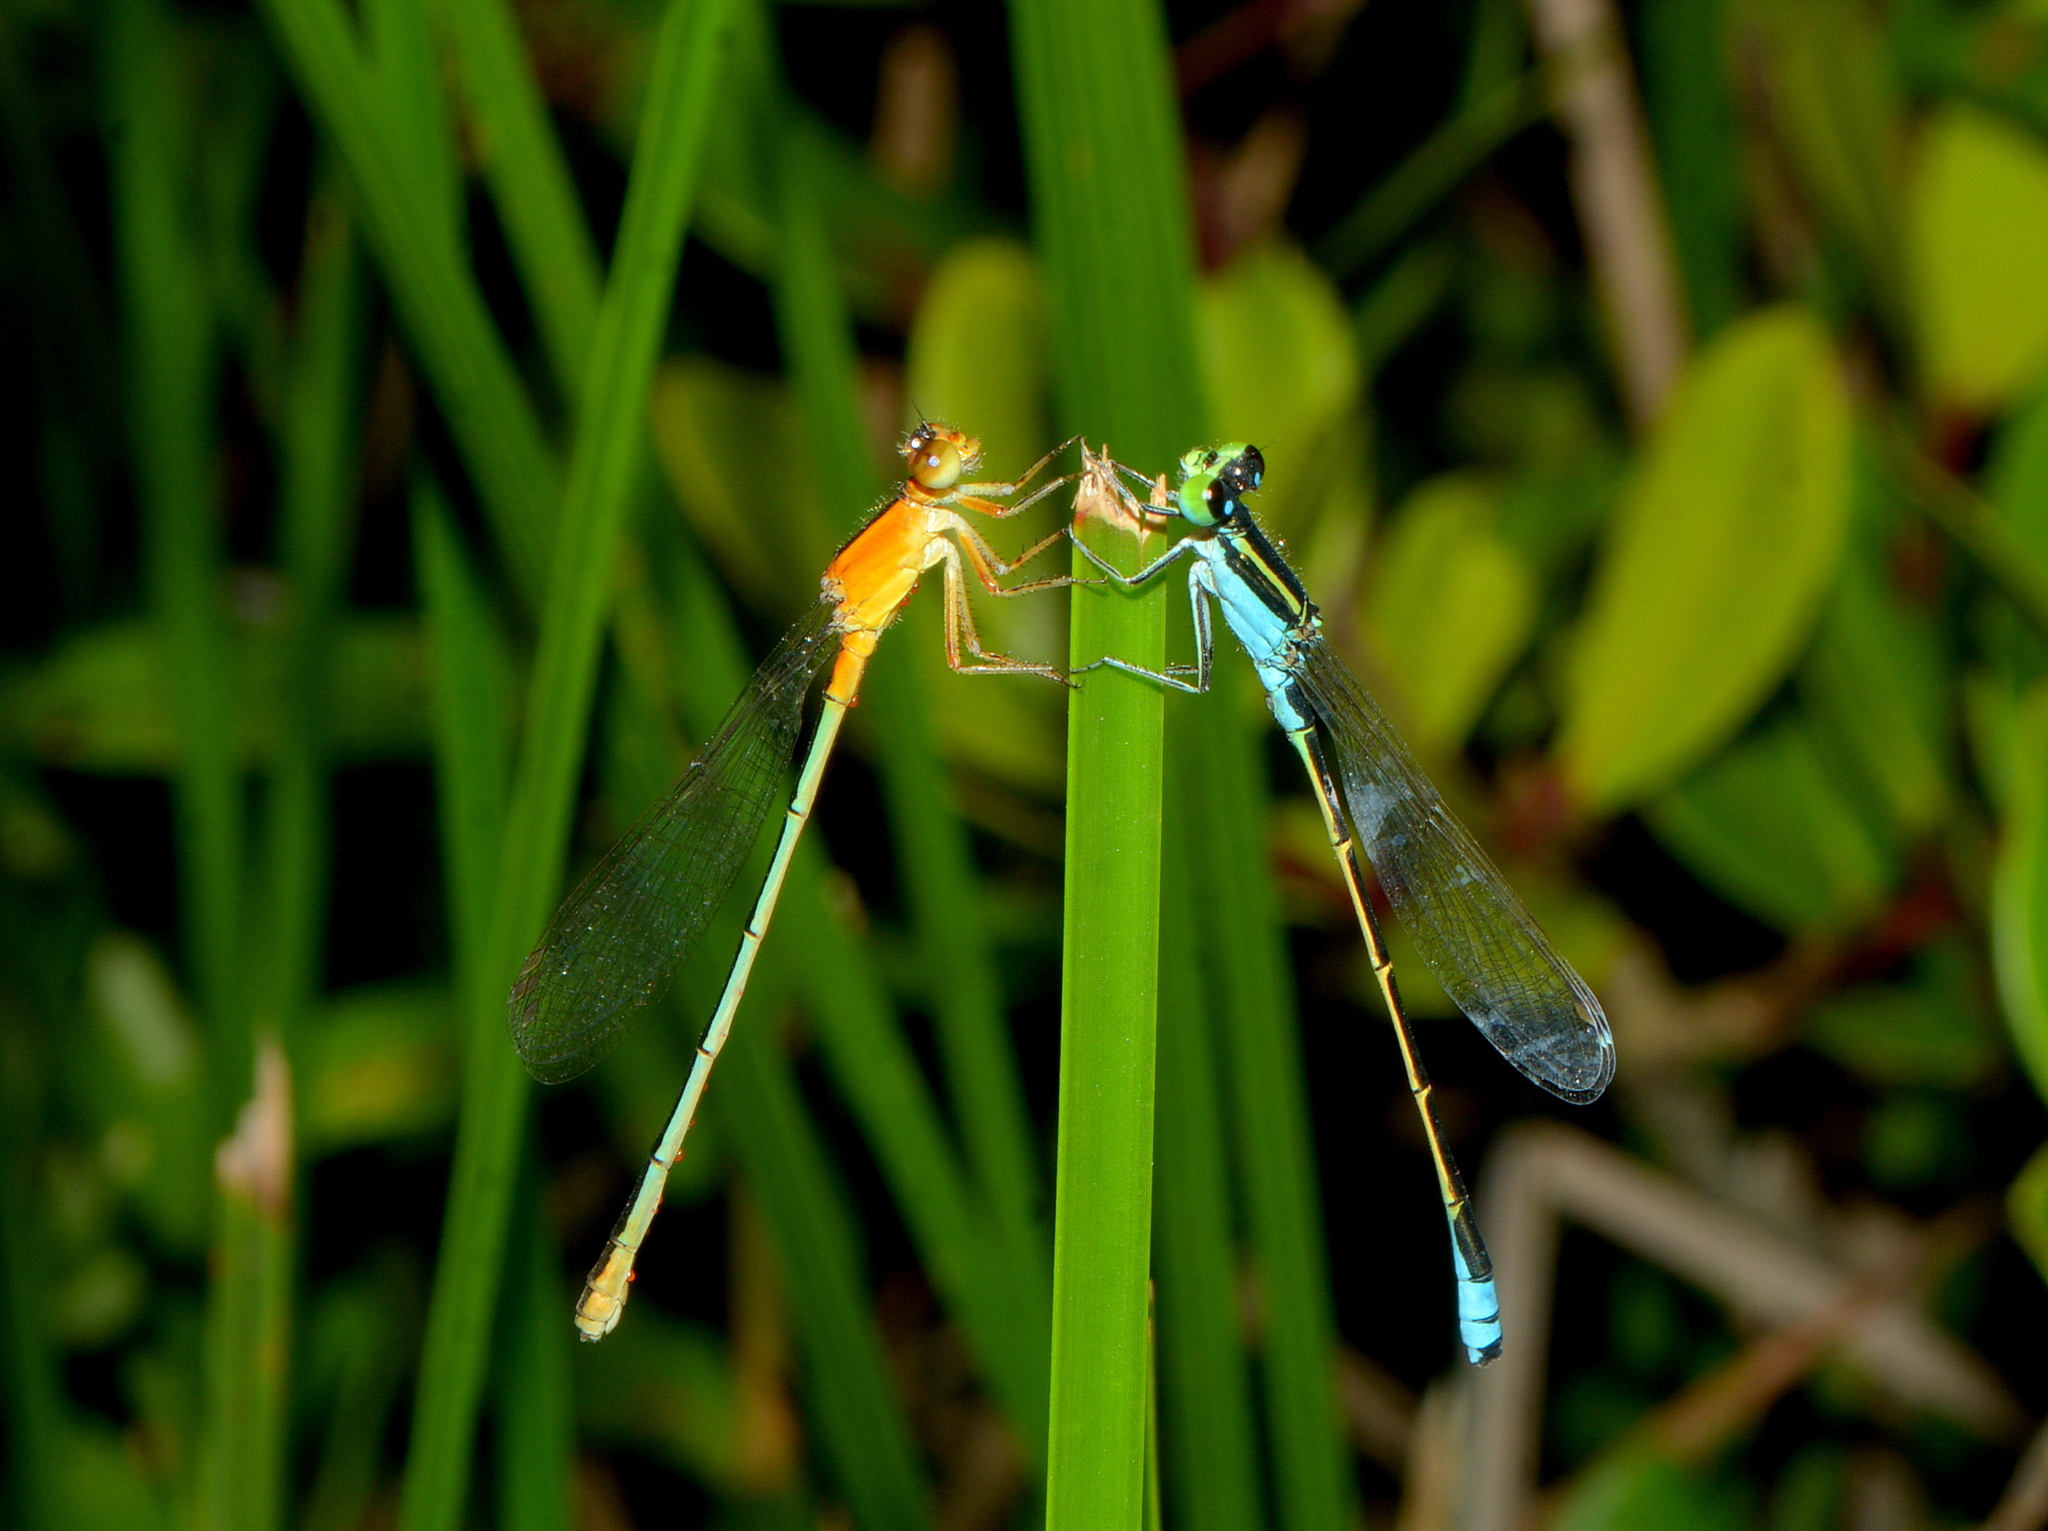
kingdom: Animalia
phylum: Arthropoda
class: Insecta
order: Odonata
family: Coenagrionidae
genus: Ischnura
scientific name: Ischnura fluviatilis
